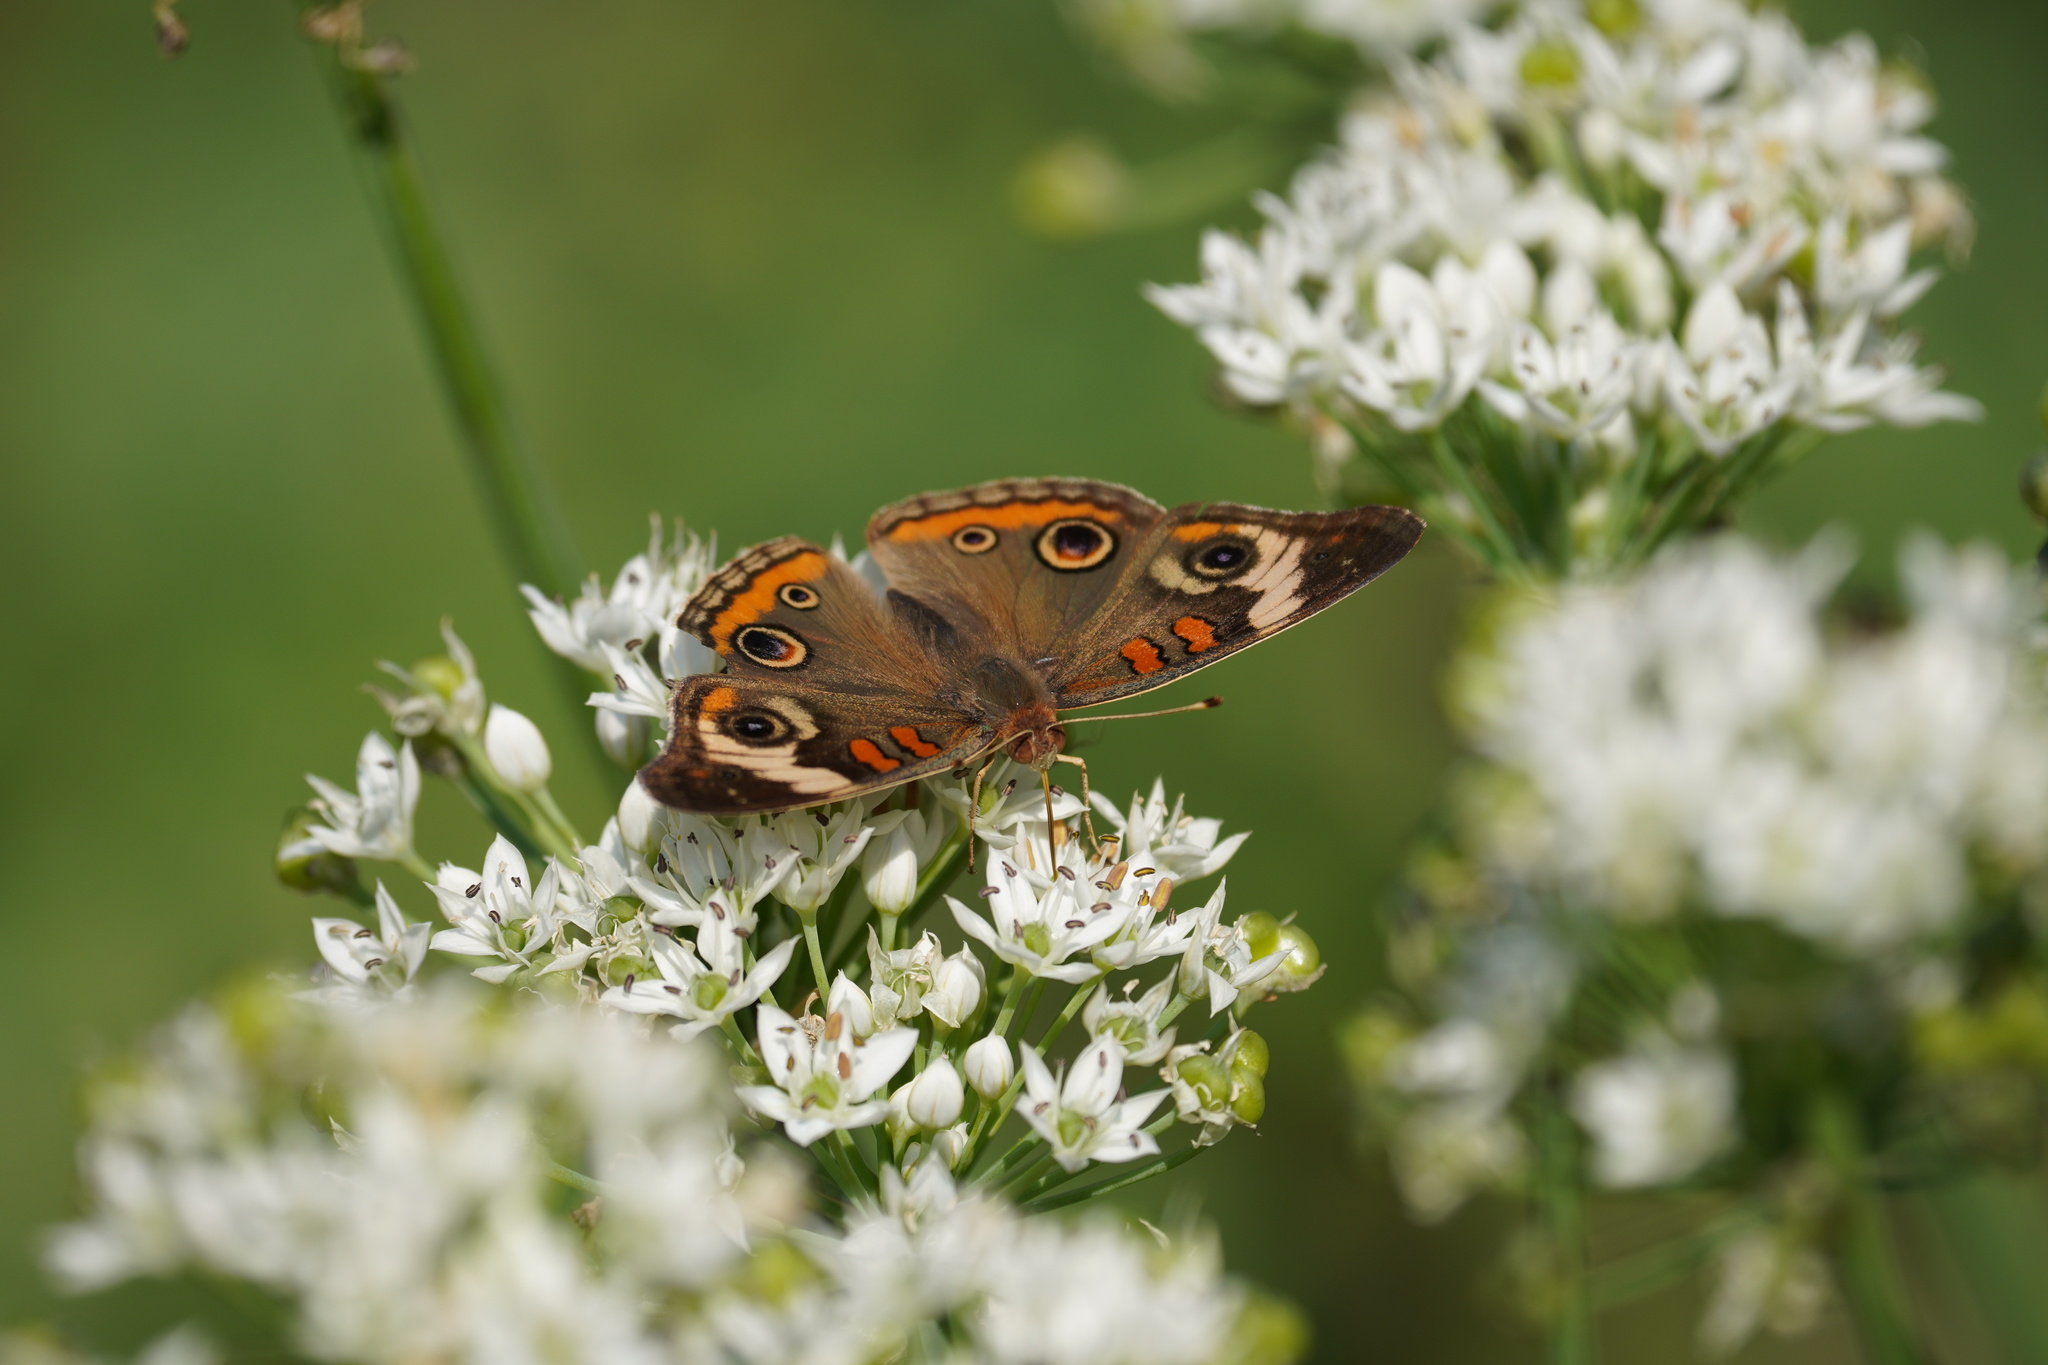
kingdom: Animalia
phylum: Arthropoda
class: Insecta
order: Lepidoptera
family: Nymphalidae
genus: Junonia
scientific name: Junonia coenia
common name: Common buckeye
